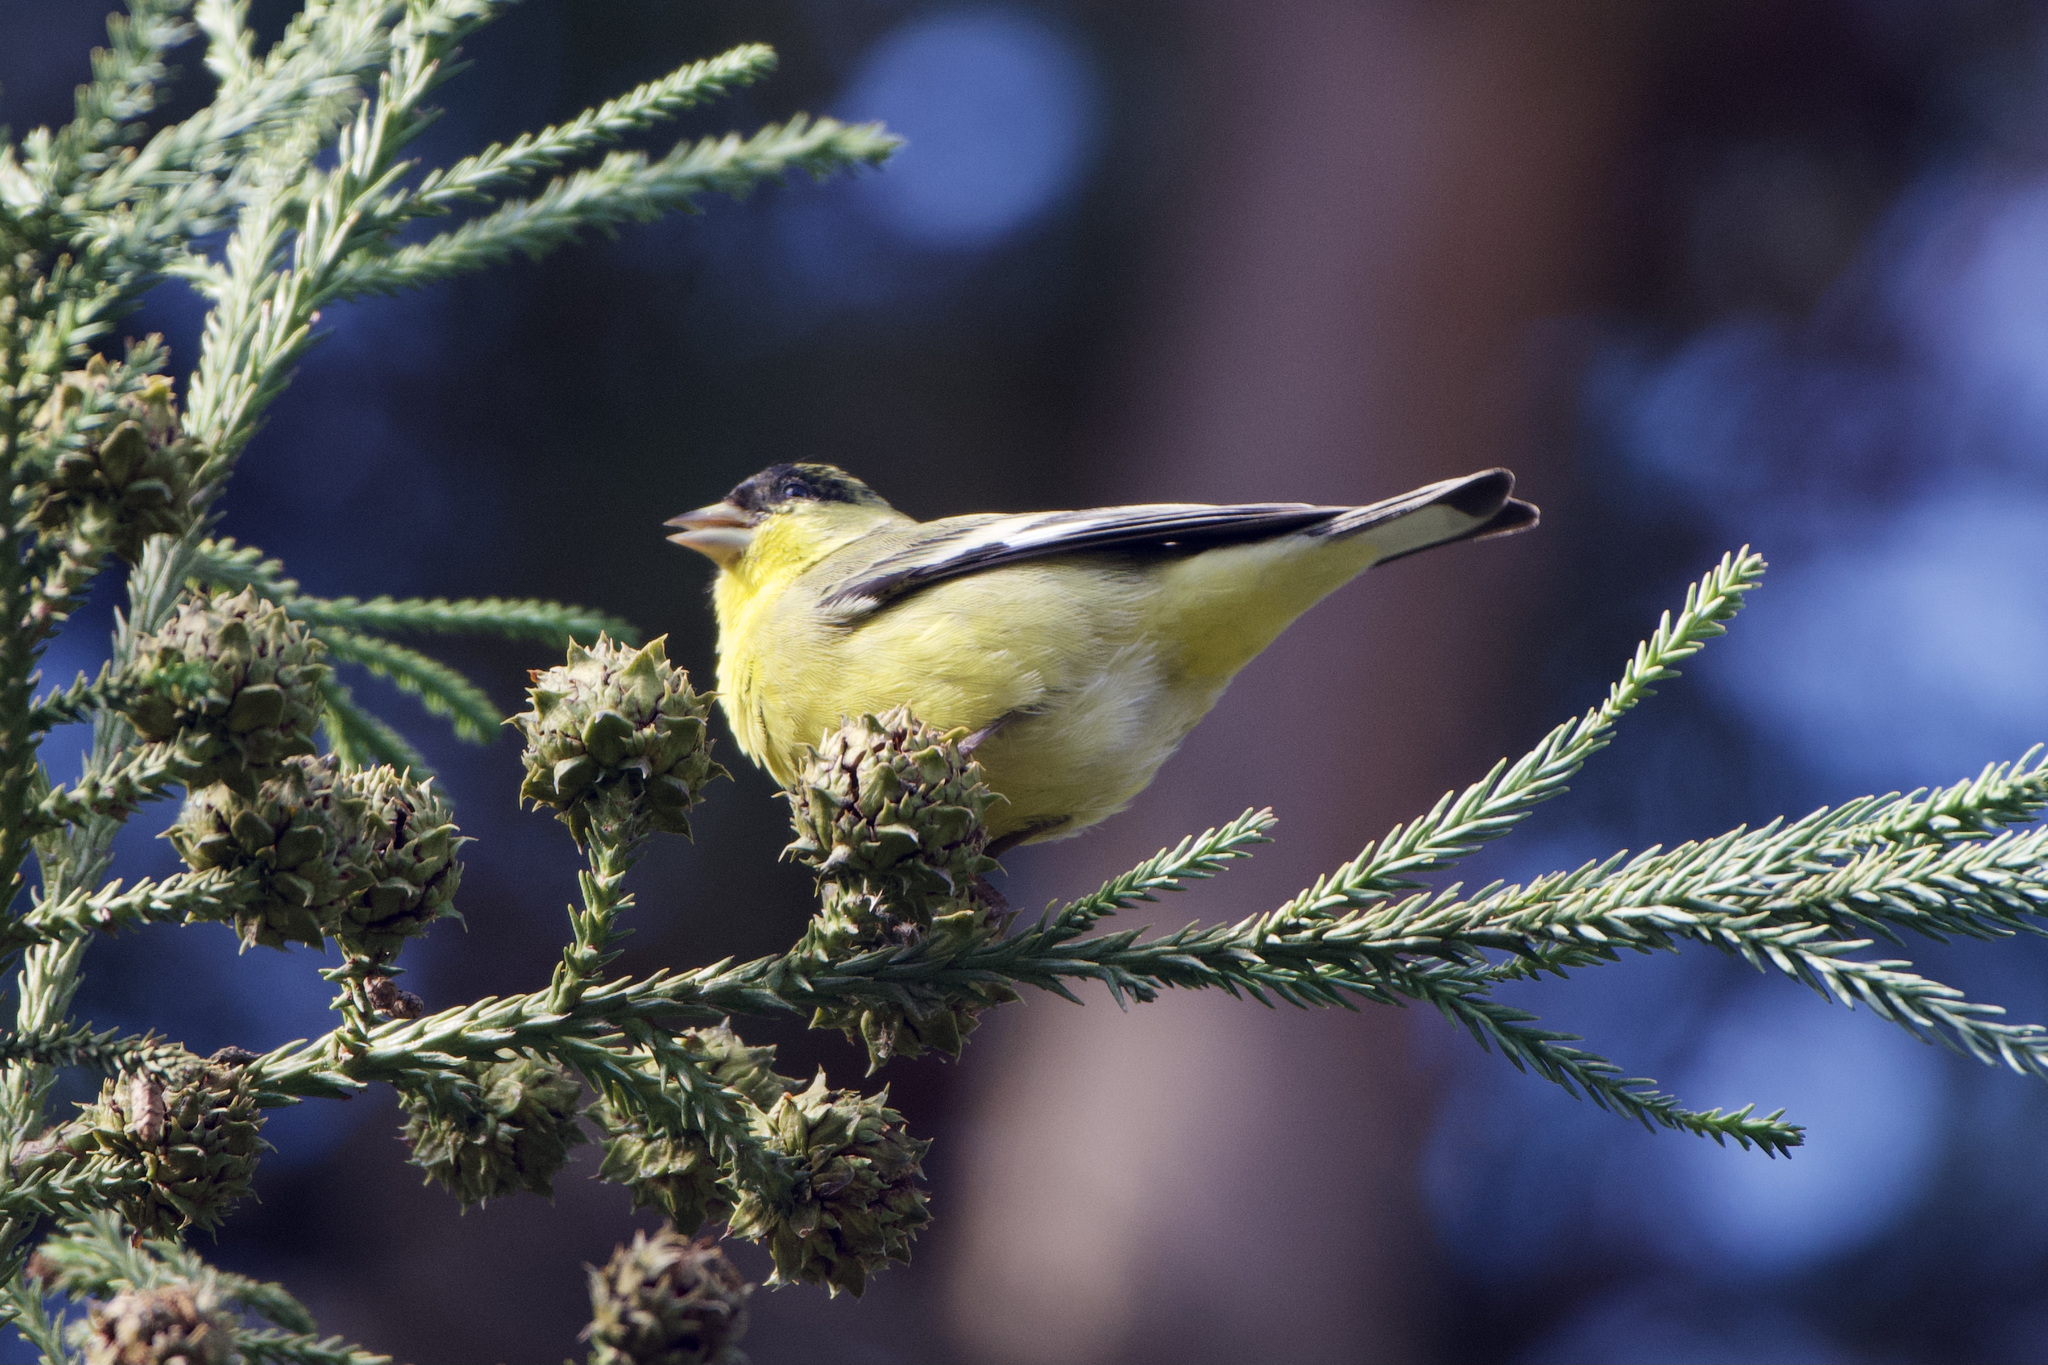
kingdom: Animalia
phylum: Chordata
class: Aves
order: Passeriformes
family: Fringillidae
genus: Spinus
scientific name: Spinus psaltria
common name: Lesser goldfinch
